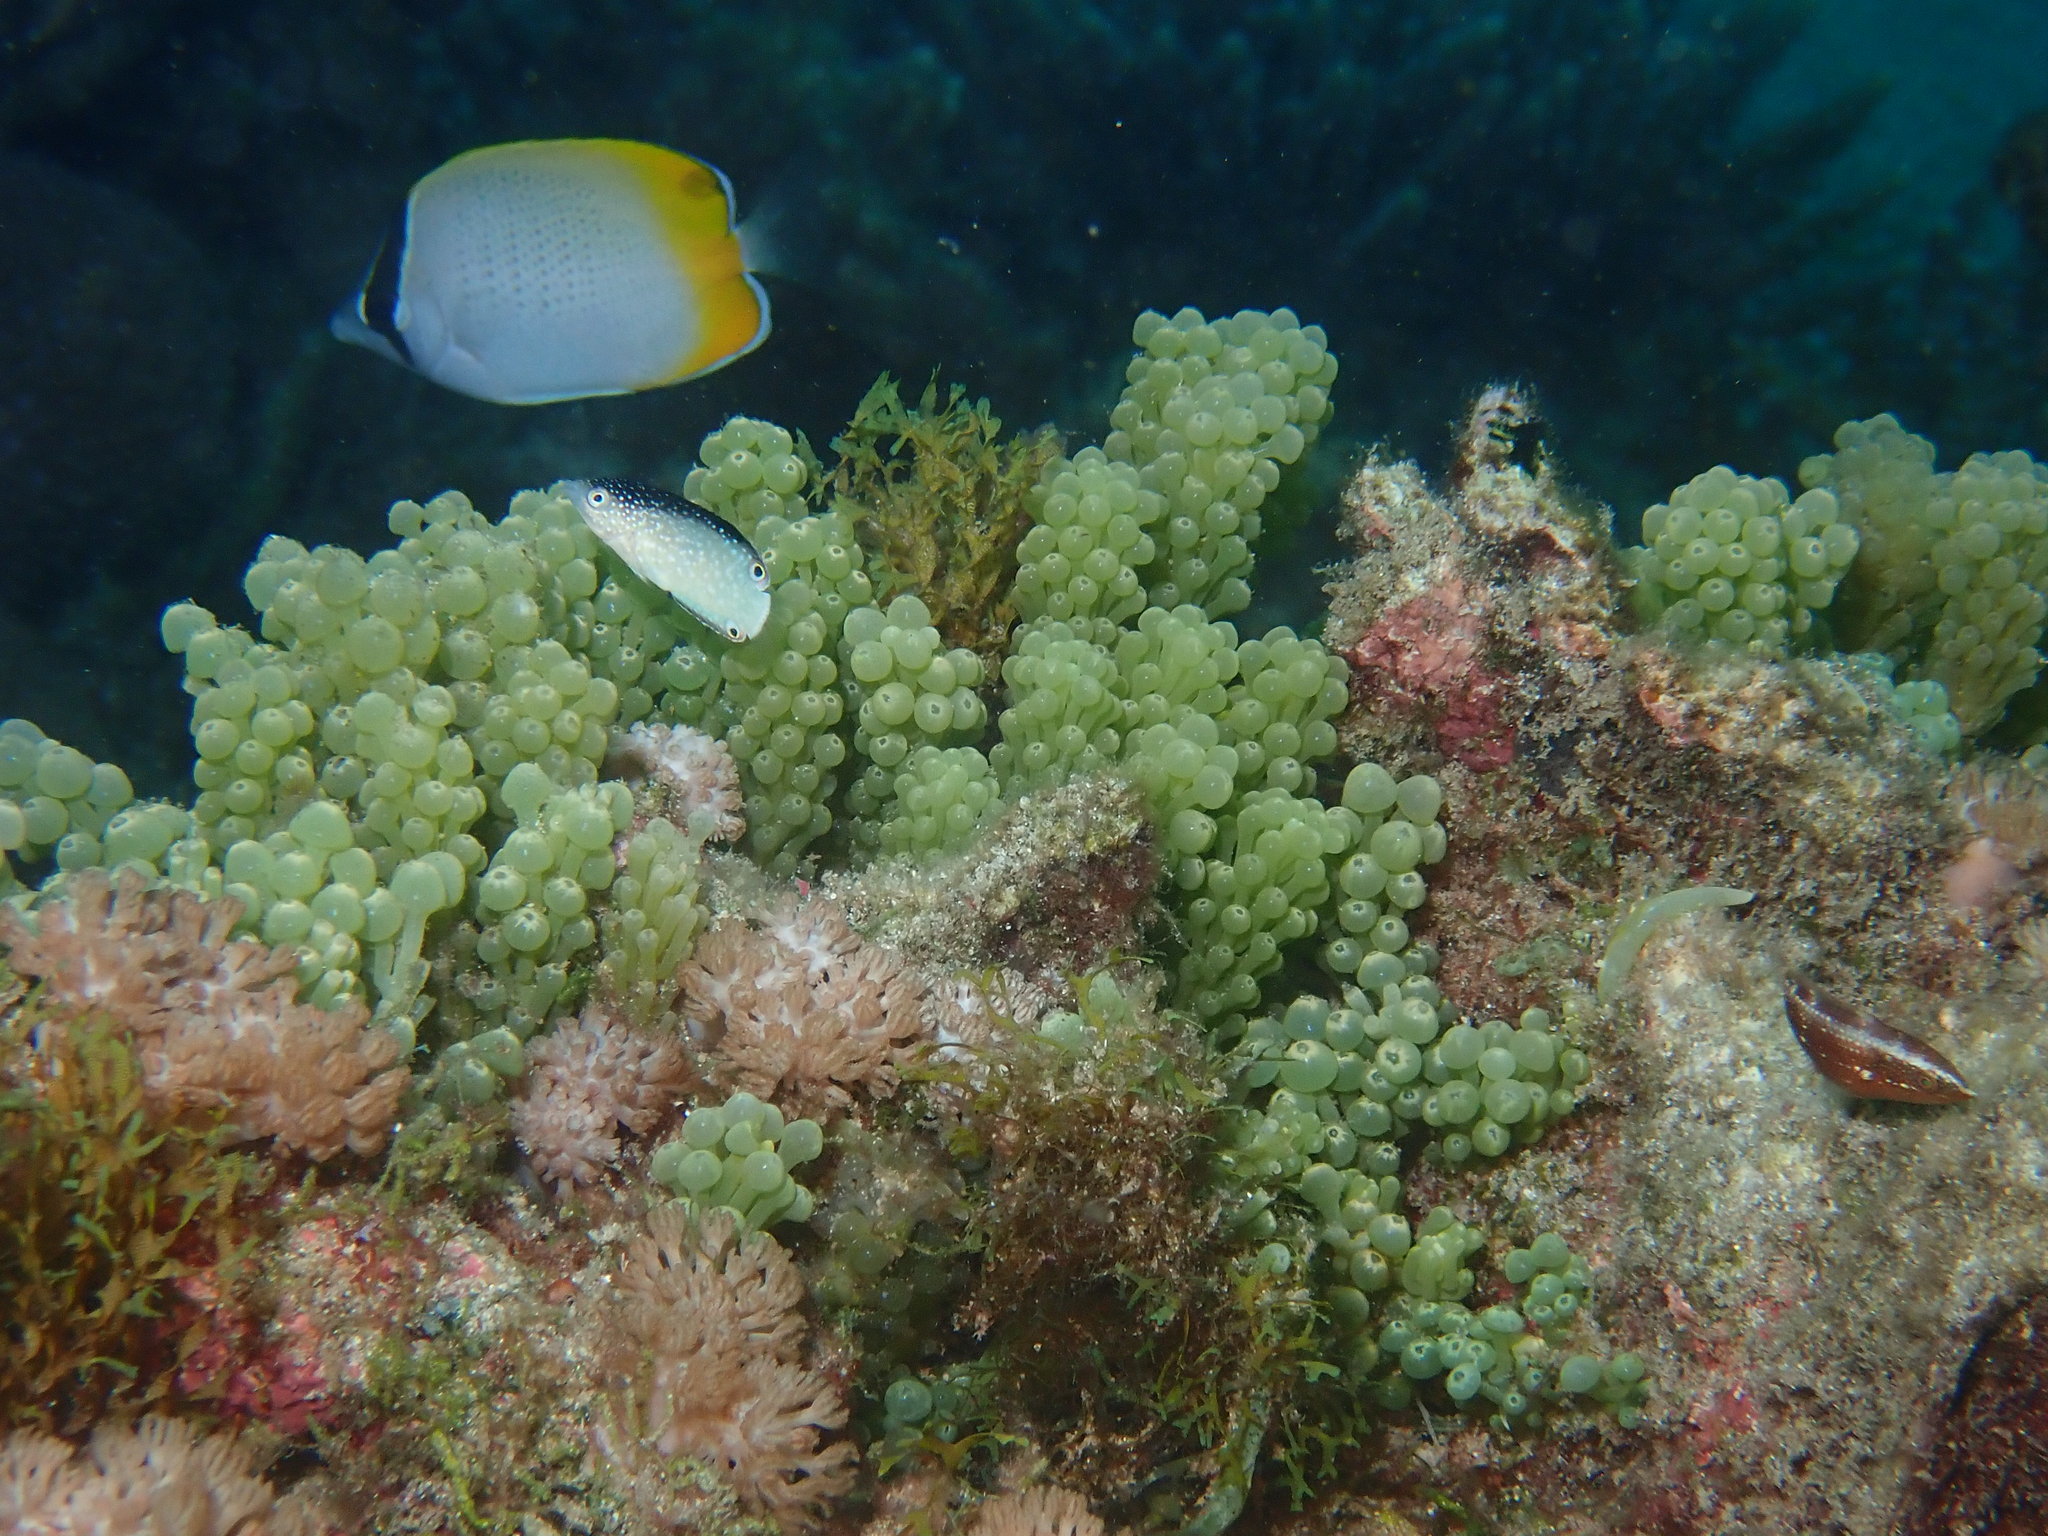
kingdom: Animalia
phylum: Chordata
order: Perciformes
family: Labridae
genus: Anampses
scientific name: Anampses neoguinaicus
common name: New guinea wrasse
